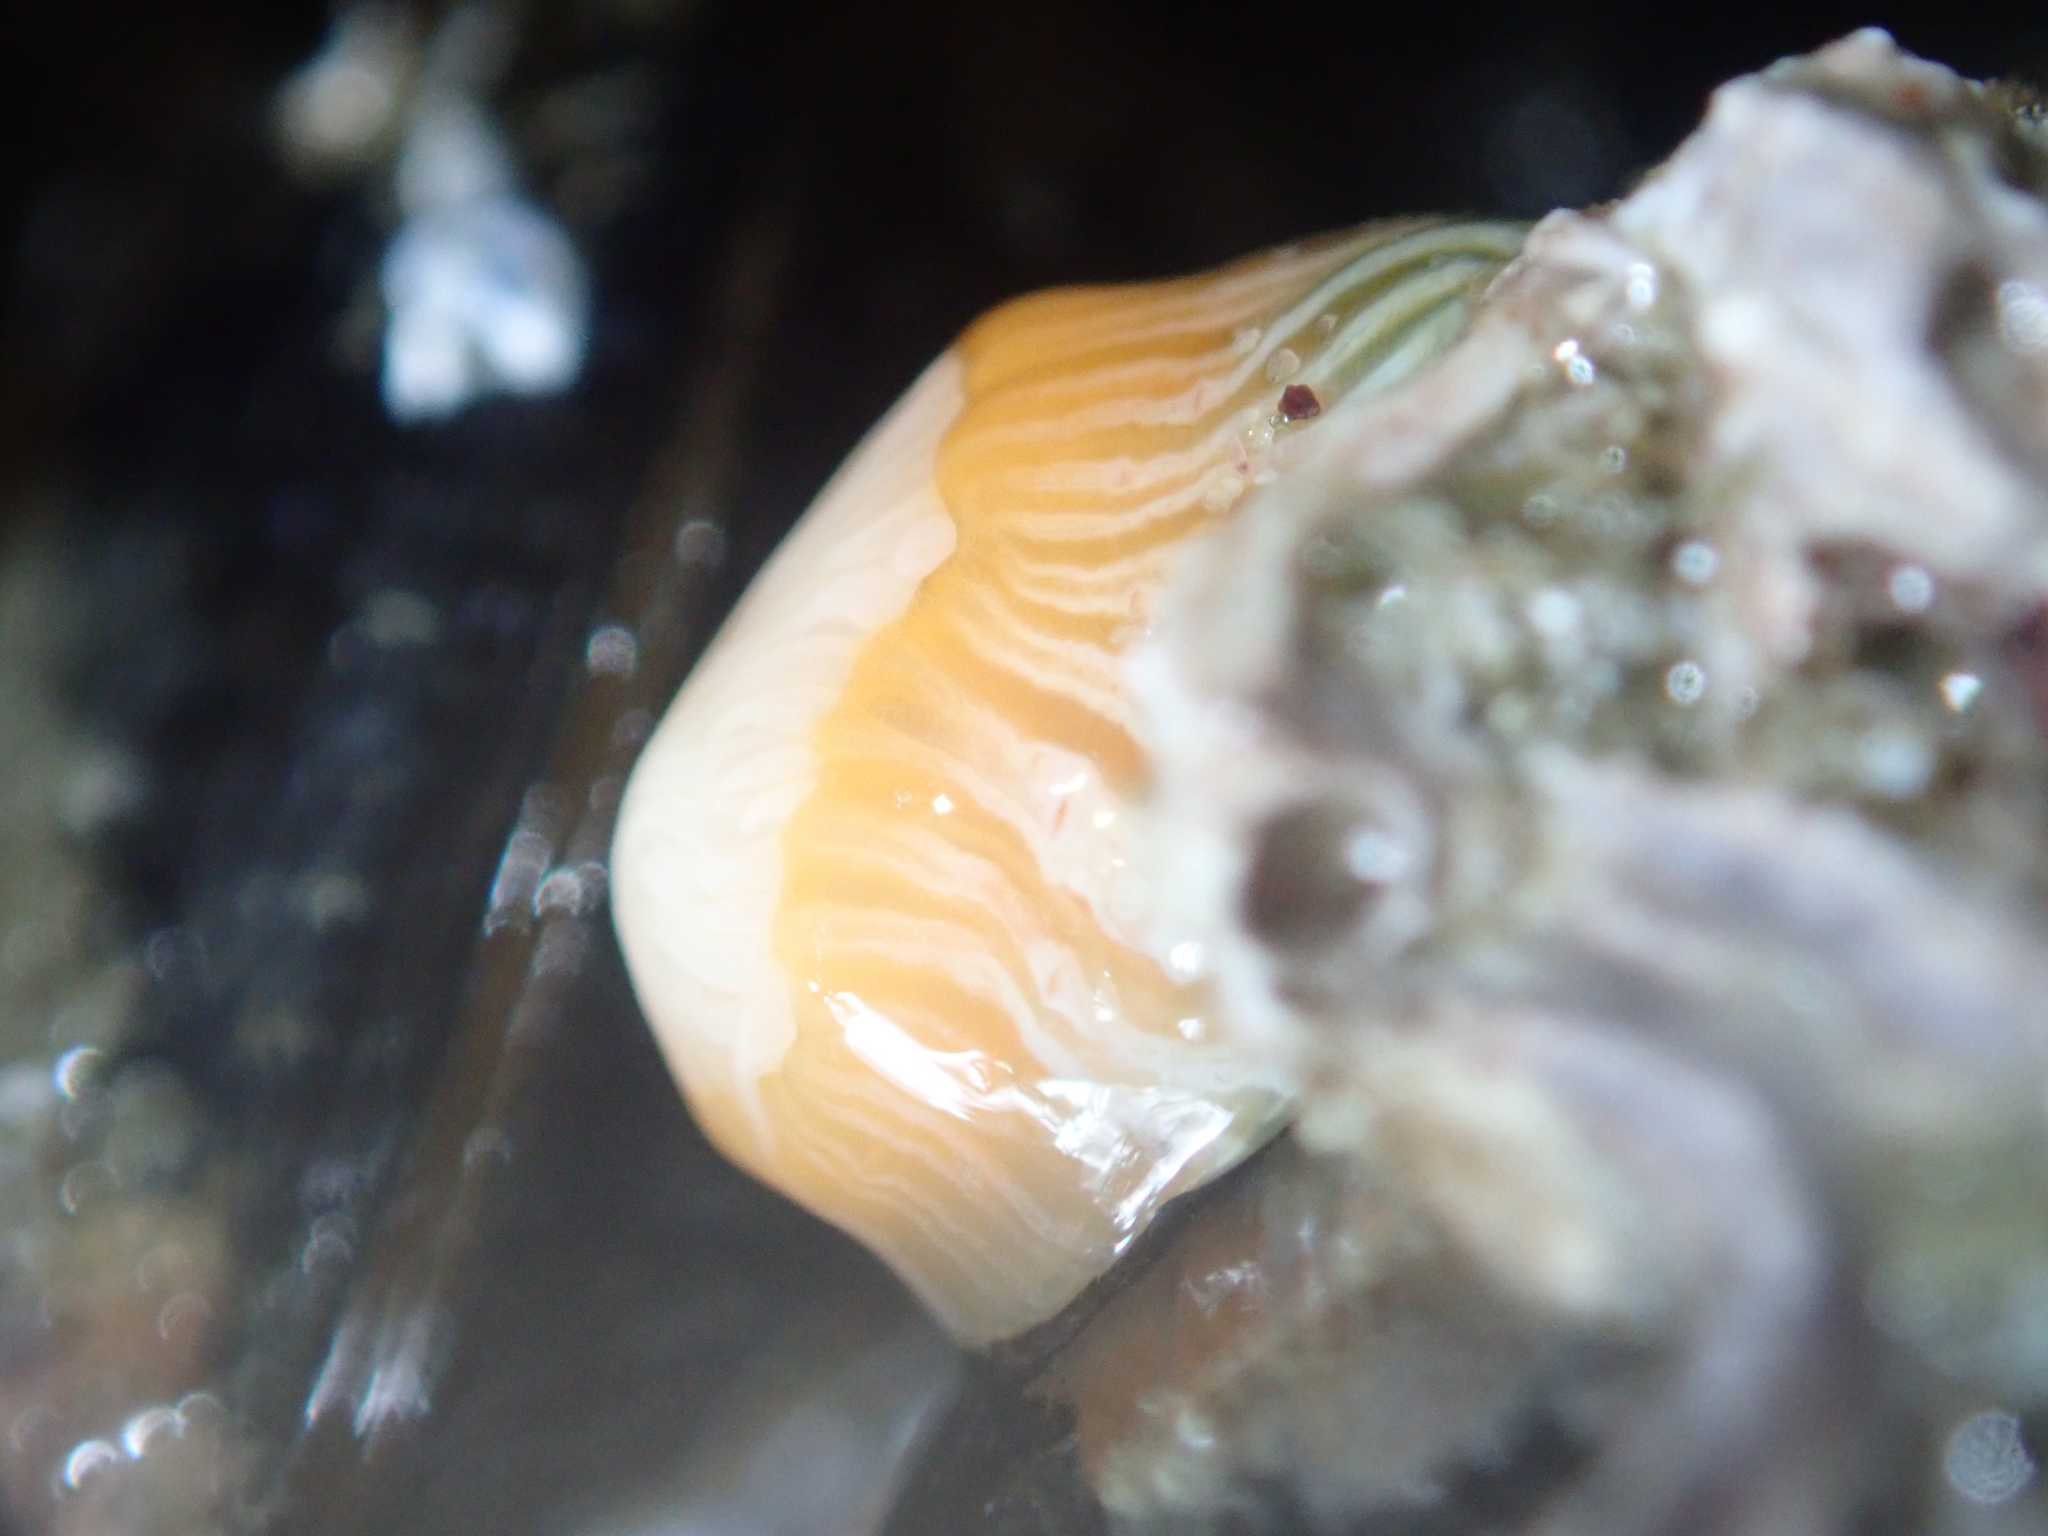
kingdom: Animalia
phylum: Cnidaria
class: Anthozoa
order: Actiniaria
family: Sagartiidae
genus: Anthothoe
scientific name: Anthothoe albocincta
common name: Orange striped anemone
